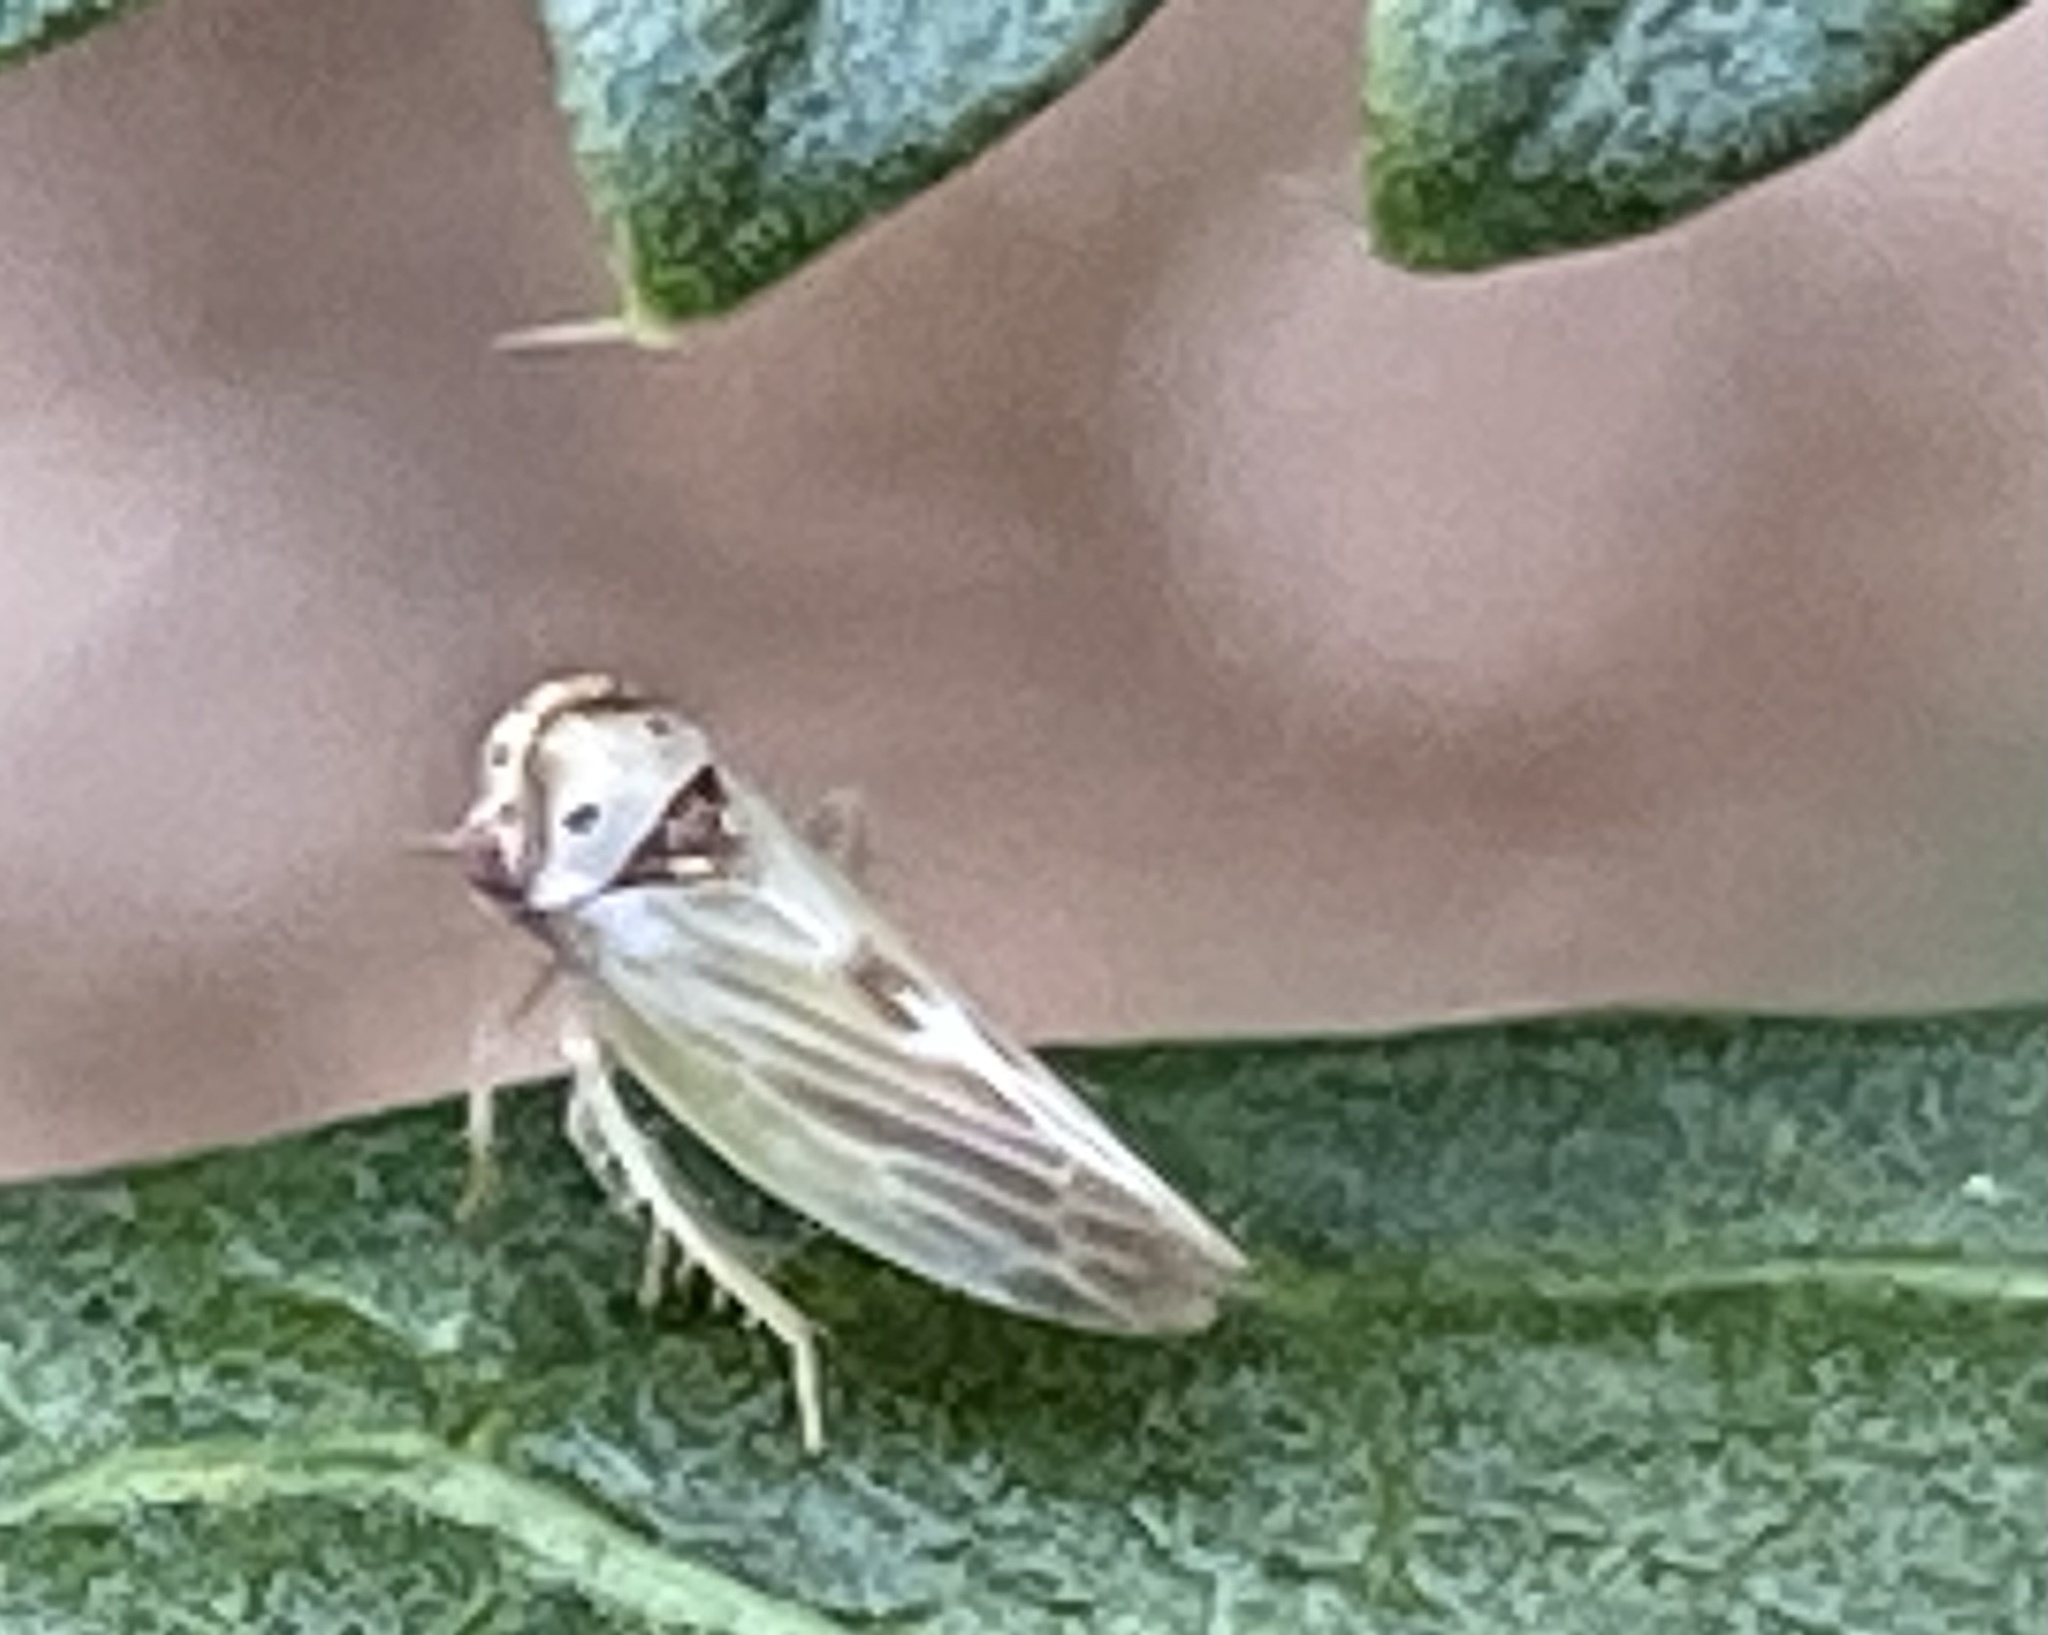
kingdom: Animalia
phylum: Arthropoda
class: Insecta
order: Hemiptera
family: Cicadellidae
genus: Agalliopsis
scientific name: Agalliopsis ancistra
